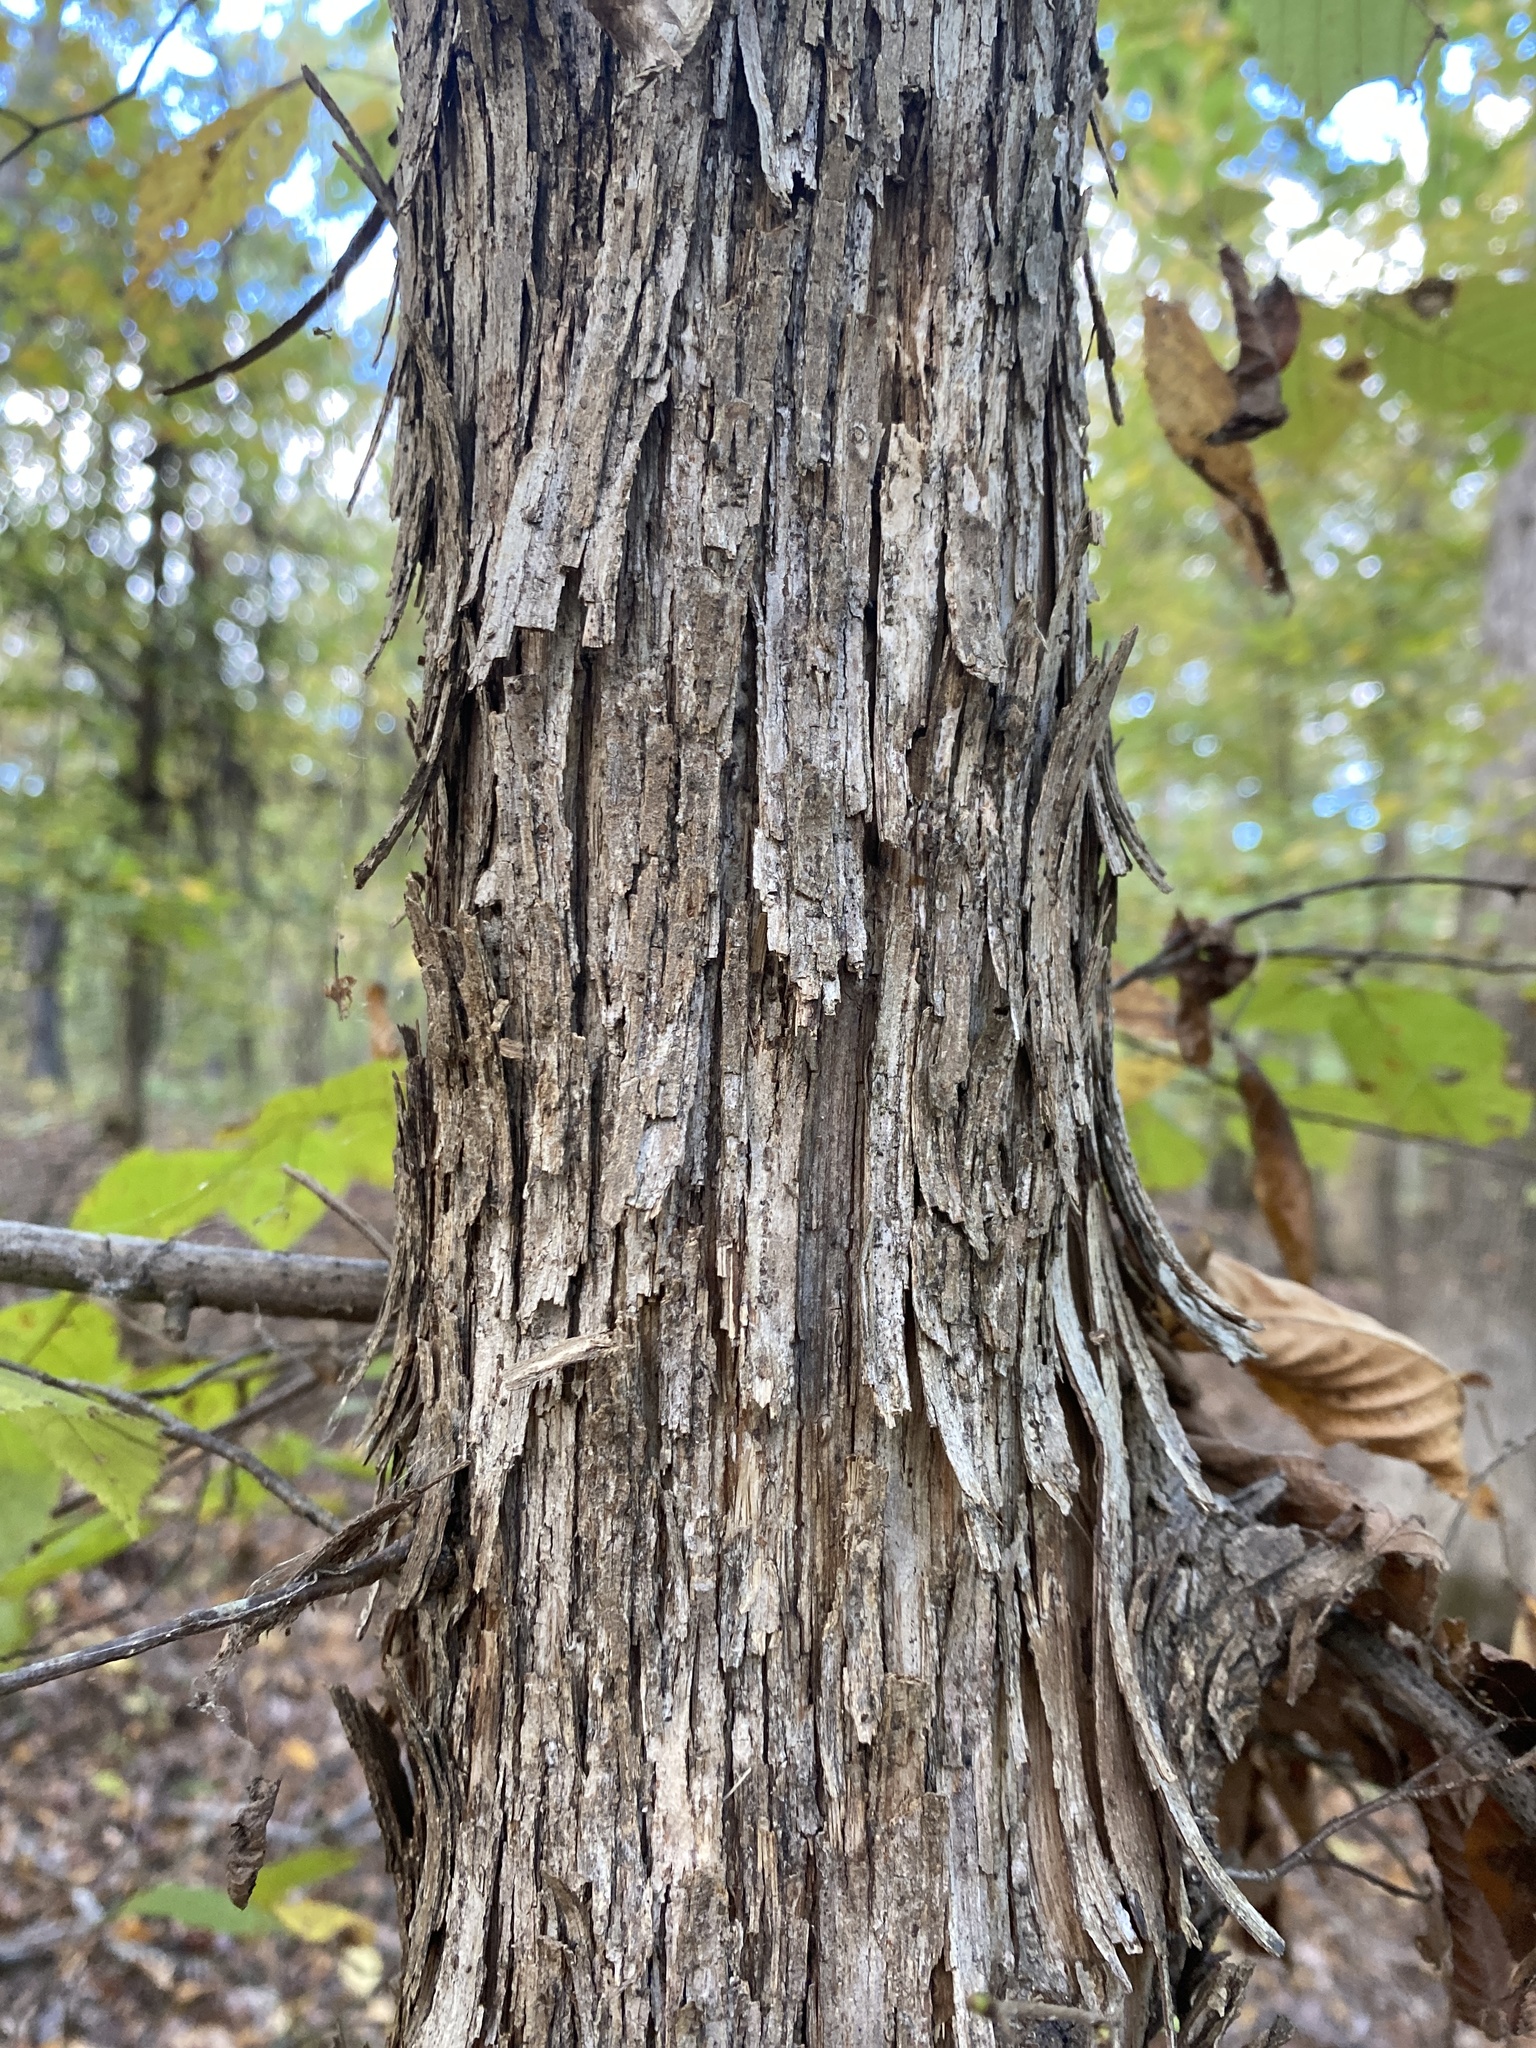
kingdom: Plantae
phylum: Tracheophyta
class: Magnoliopsida
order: Fagales
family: Betulaceae
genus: Ostrya
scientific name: Ostrya virginiana
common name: Ironwood
